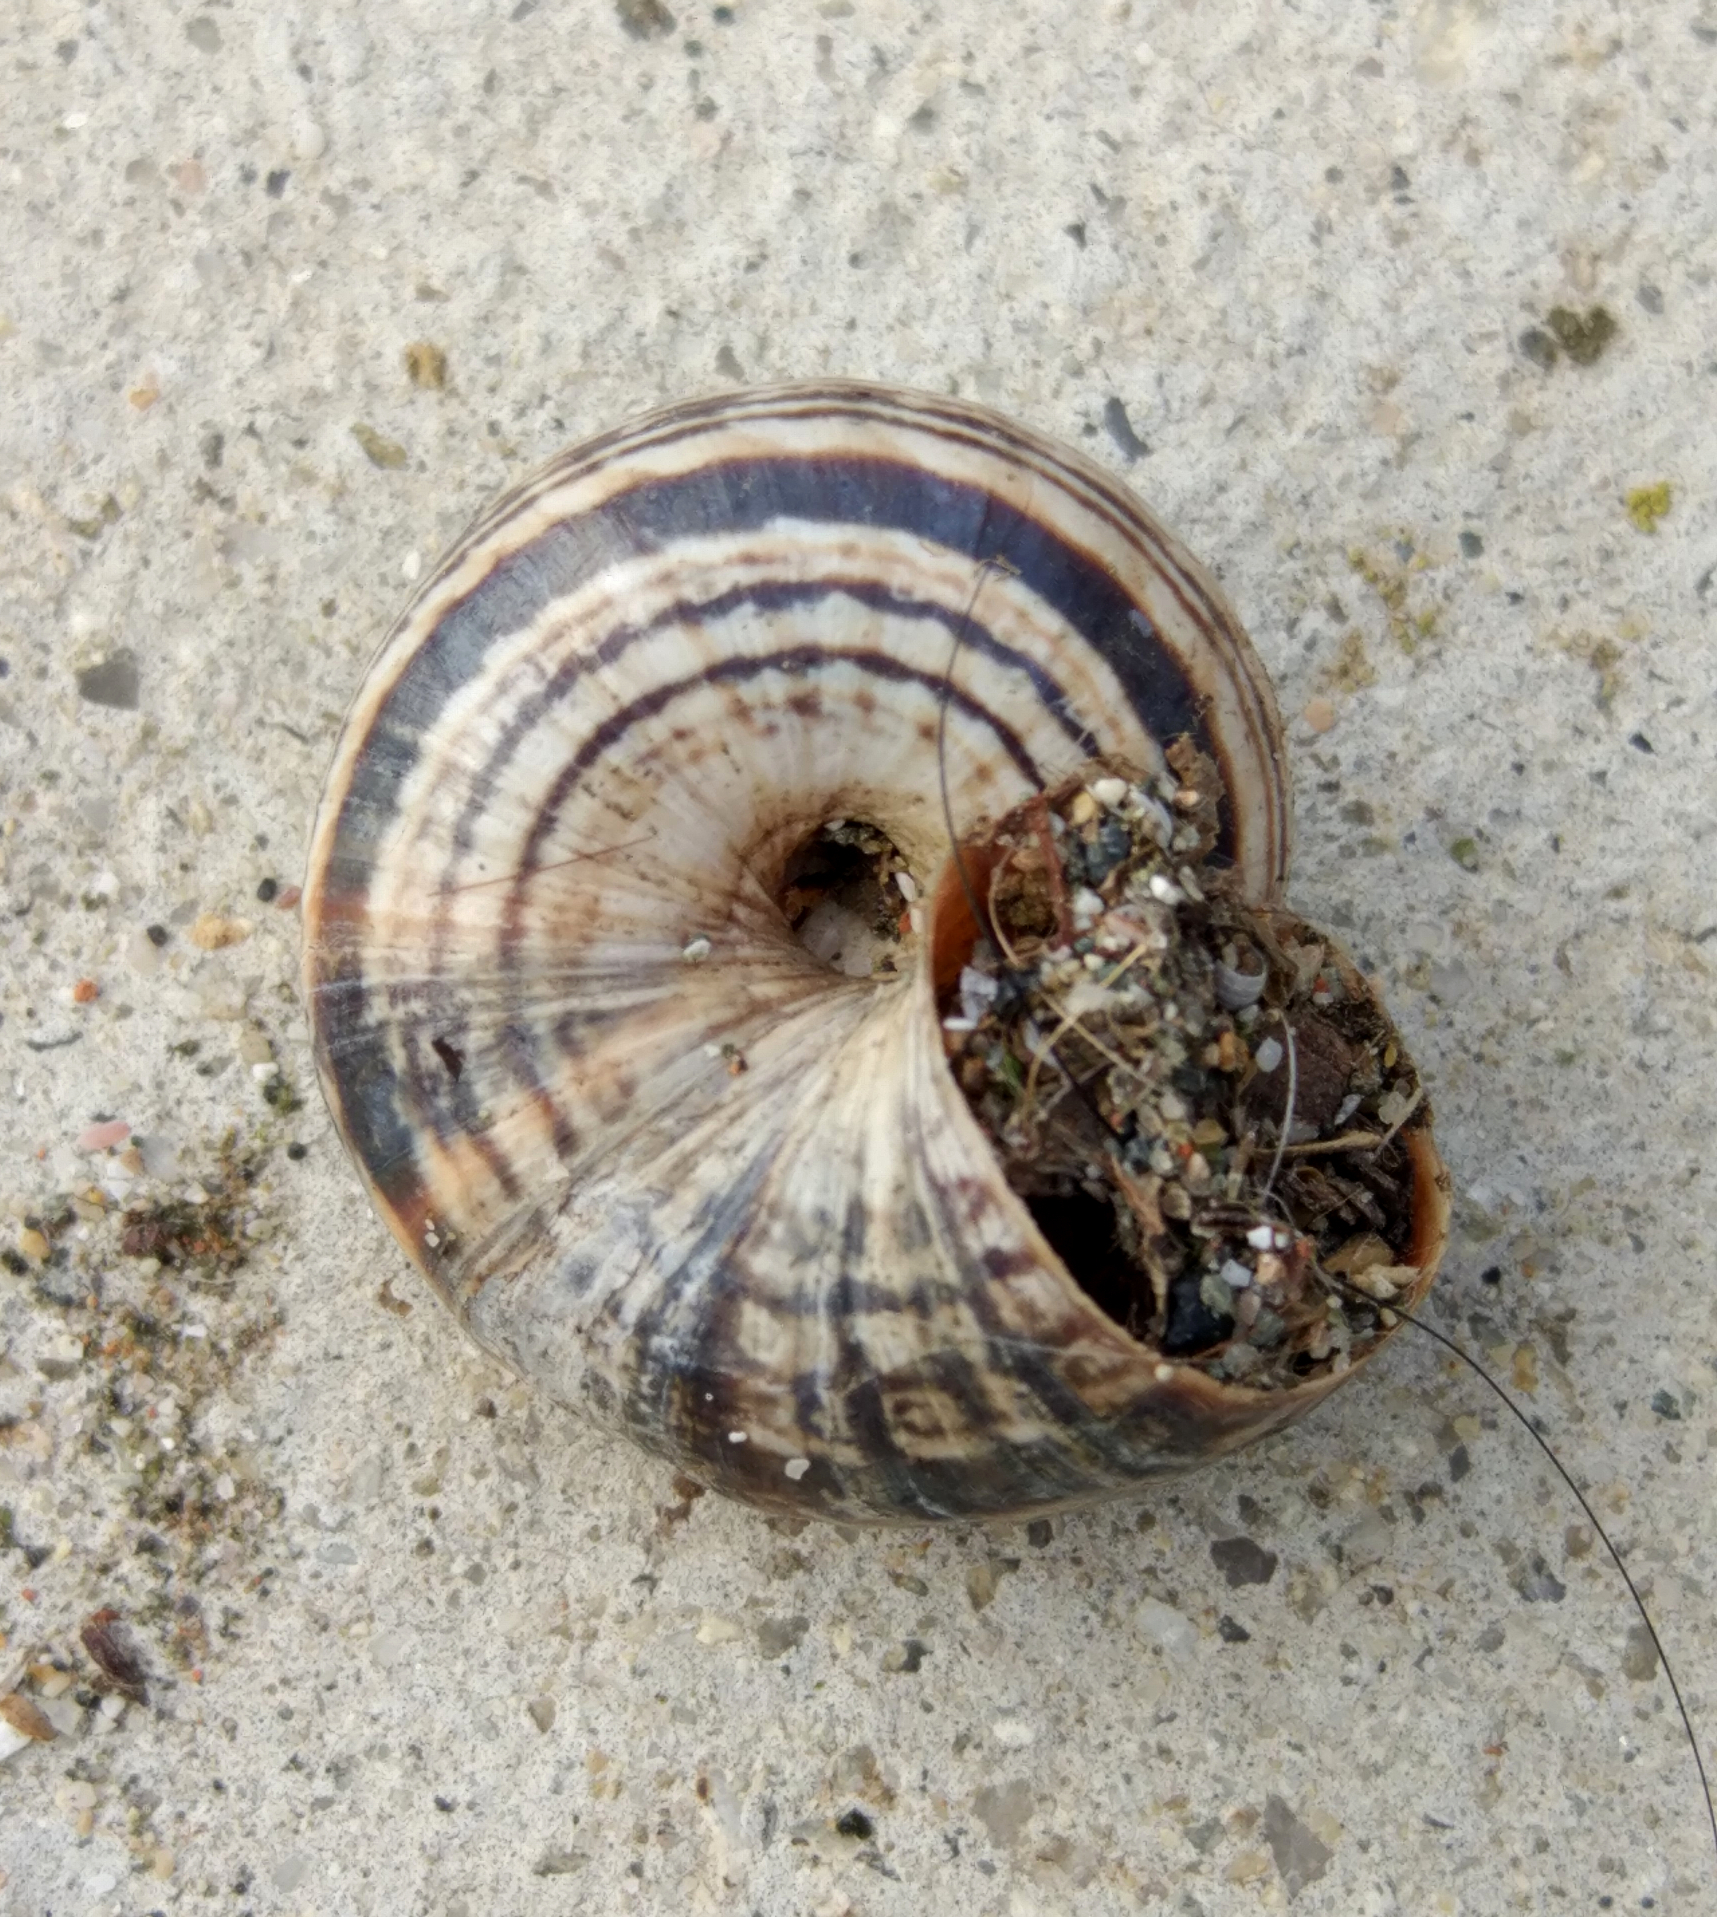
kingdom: Animalia
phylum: Mollusca
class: Gastropoda
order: Stylommatophora
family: Geomitridae
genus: Xeropicta
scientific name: Xeropicta krynickii
